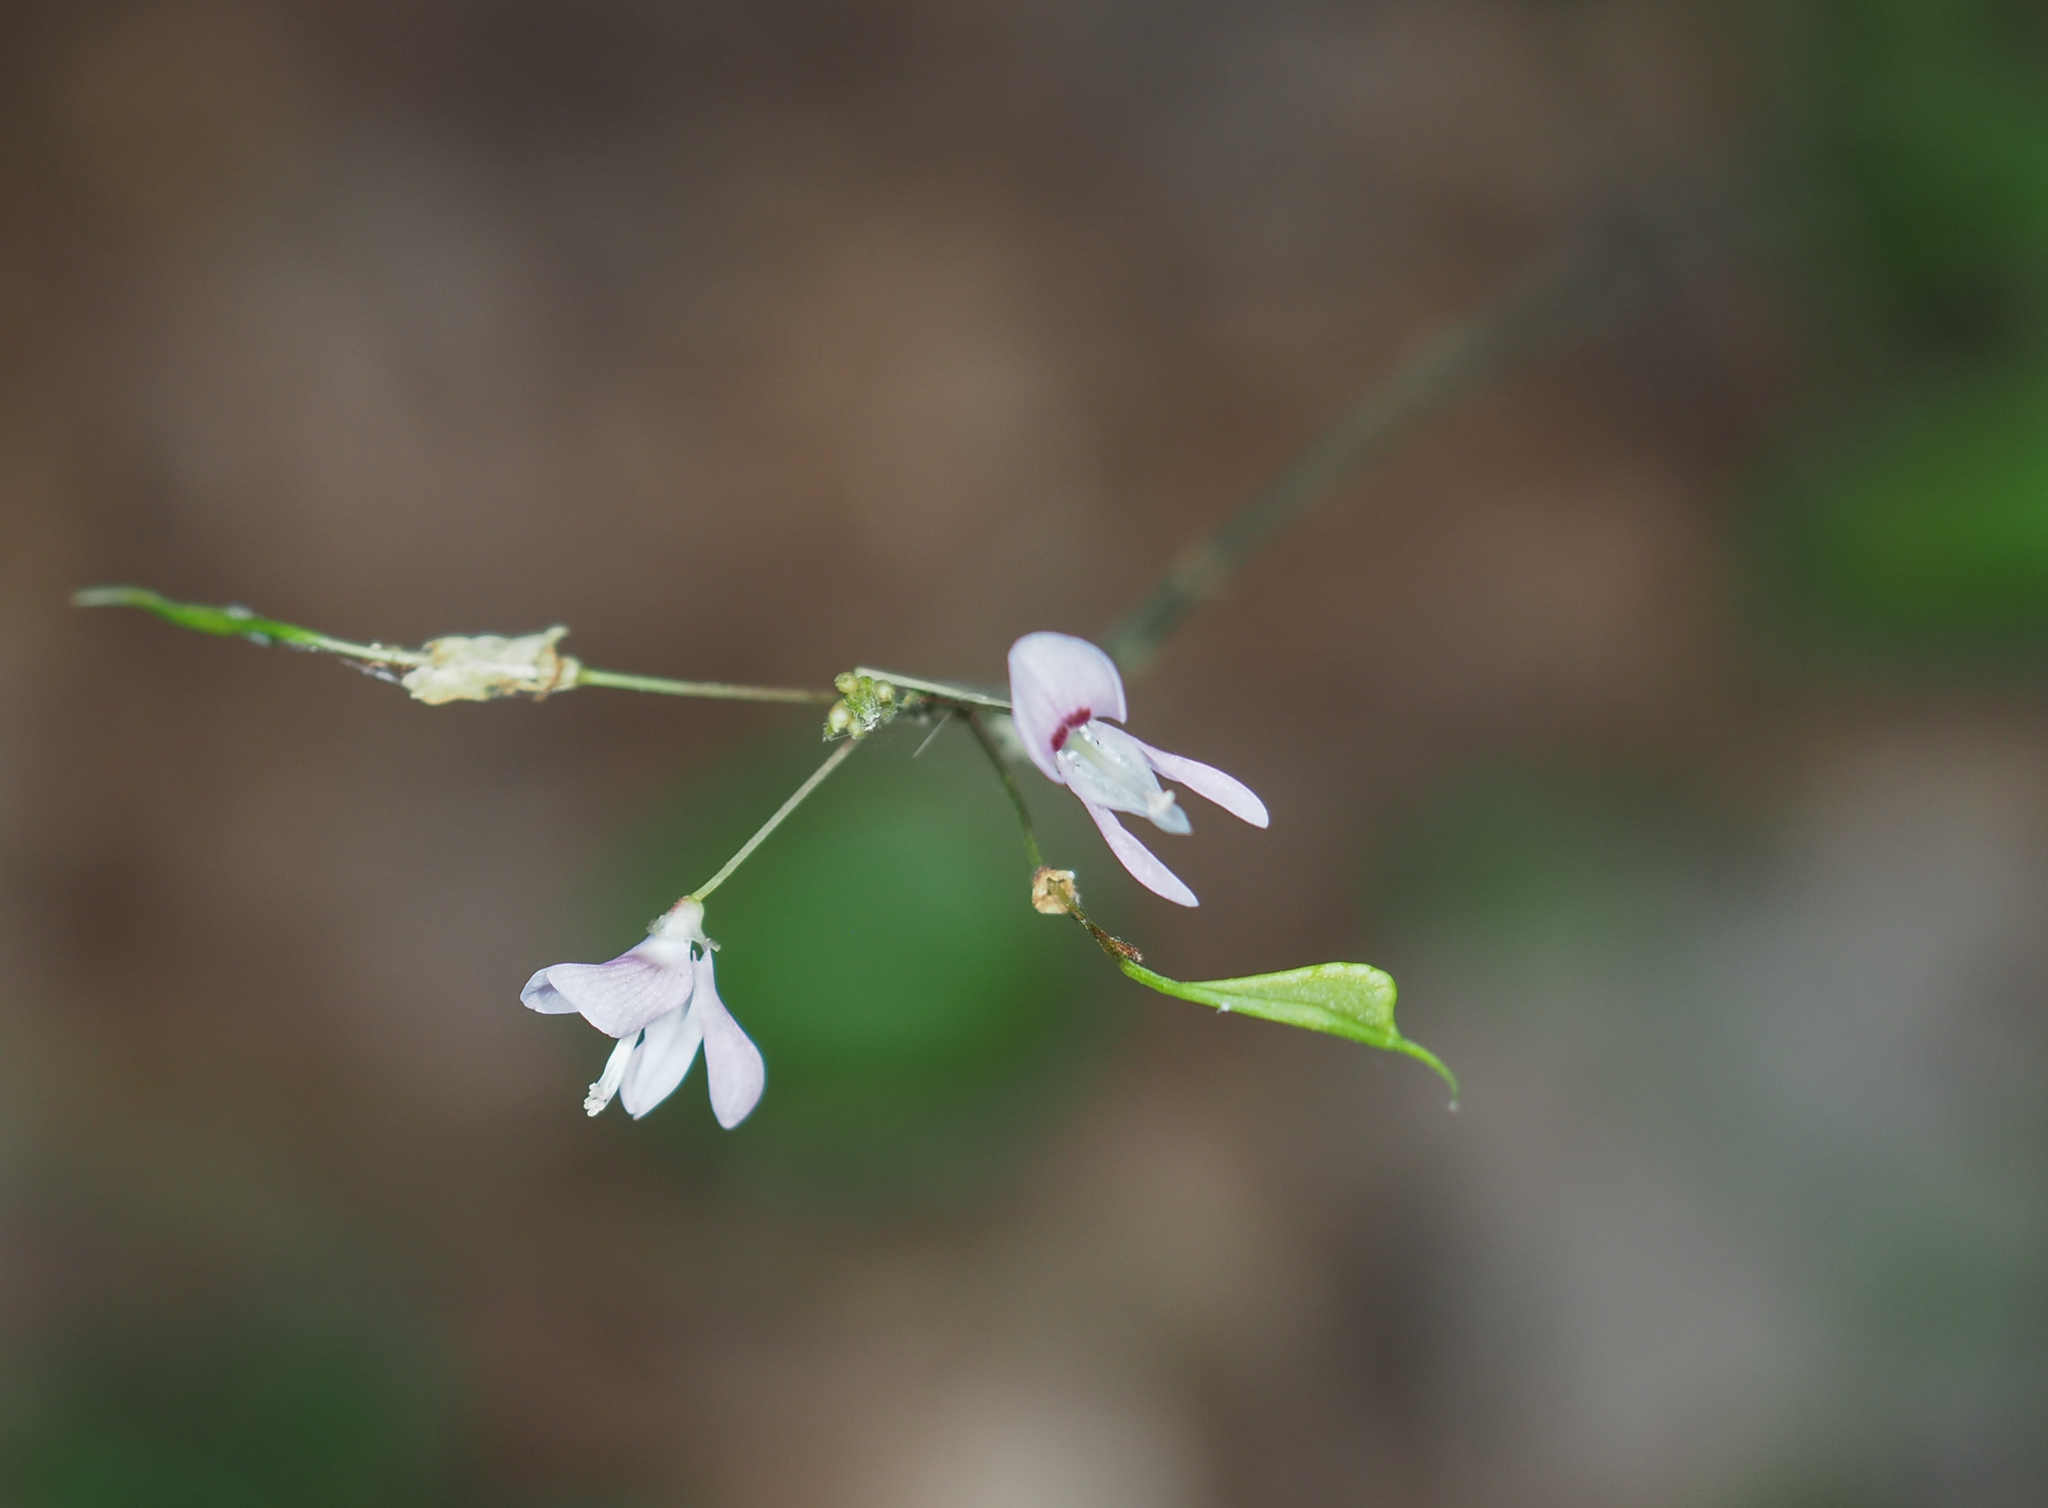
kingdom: Plantae
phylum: Tracheophyta
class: Magnoliopsida
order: Fabales
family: Fabaceae
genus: Hylodesmum
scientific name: Hylodesmum nudiflorum
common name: Bare-stemmed tick-trefoil
